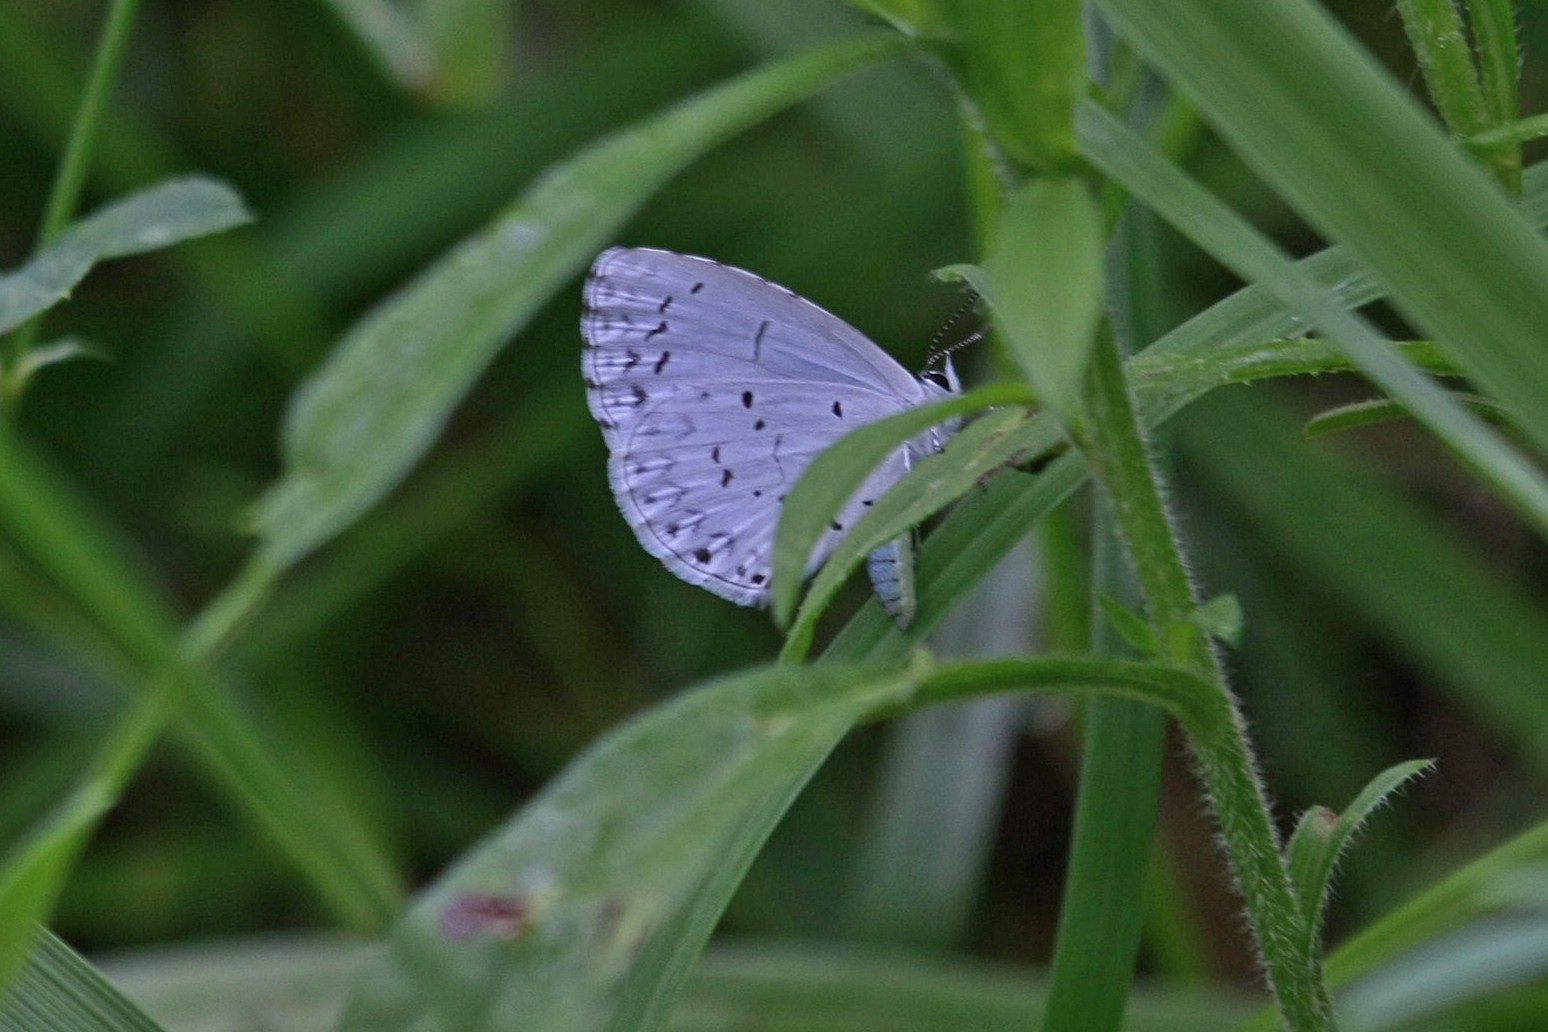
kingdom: Animalia
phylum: Arthropoda
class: Insecta
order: Lepidoptera
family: Lycaenidae
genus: Cyaniris
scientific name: Cyaniris neglecta
